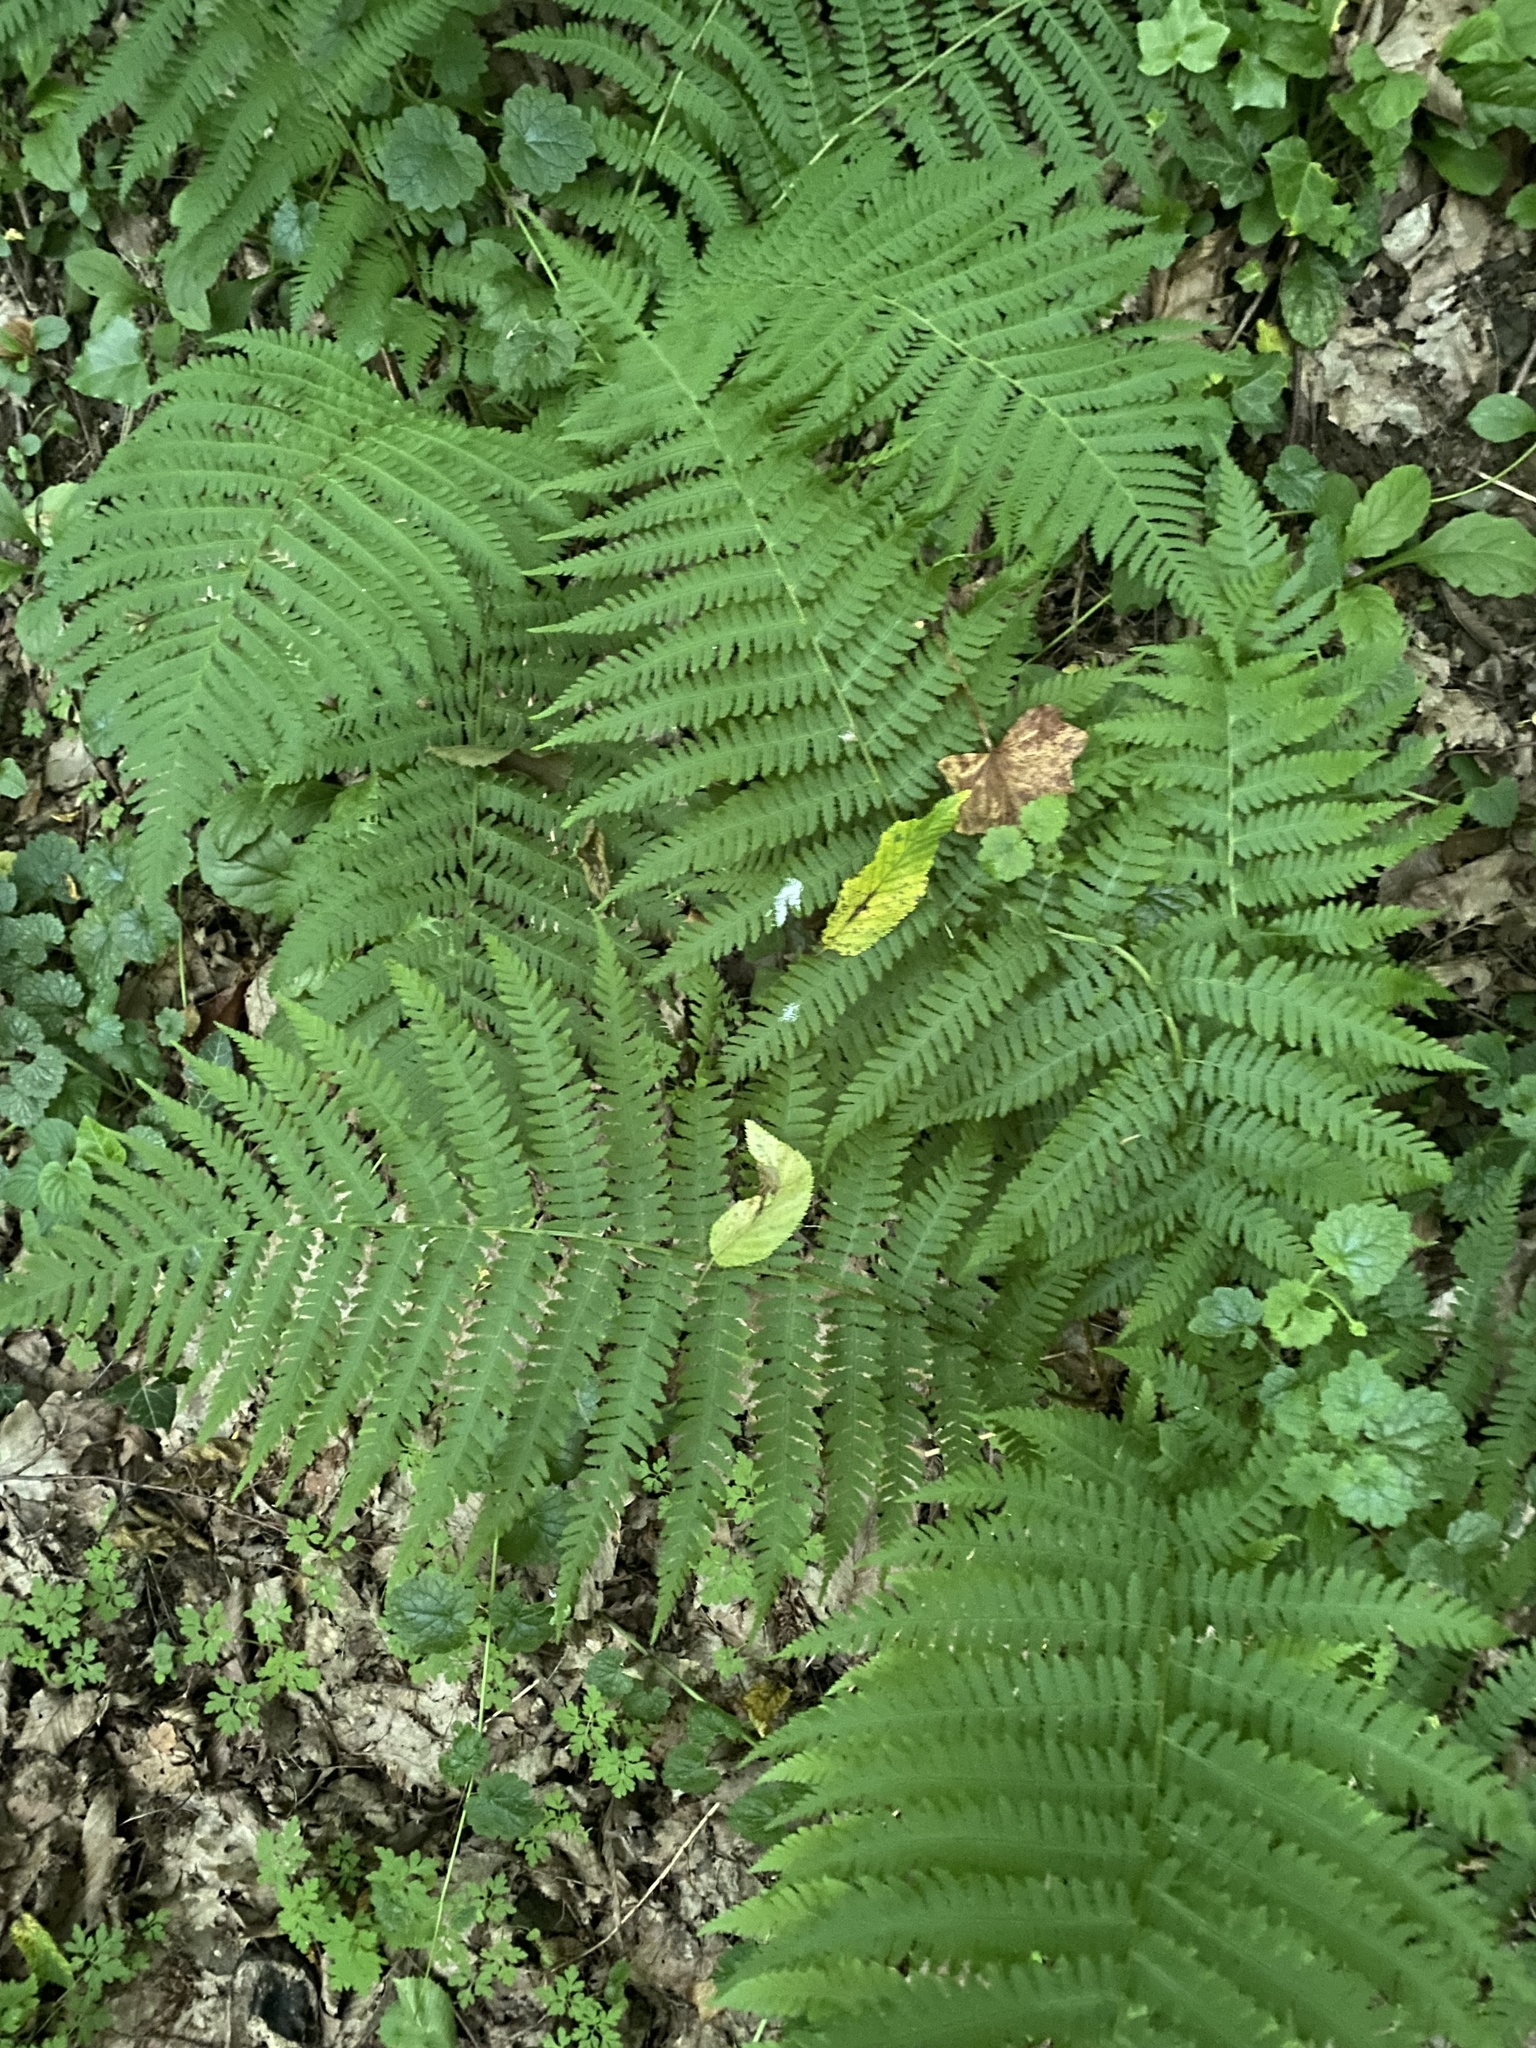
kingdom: Plantae
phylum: Tracheophyta
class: Polypodiopsida
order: Polypodiales
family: Dryopteridaceae
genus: Dryopteris
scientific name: Dryopteris filix-mas
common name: Male fern
